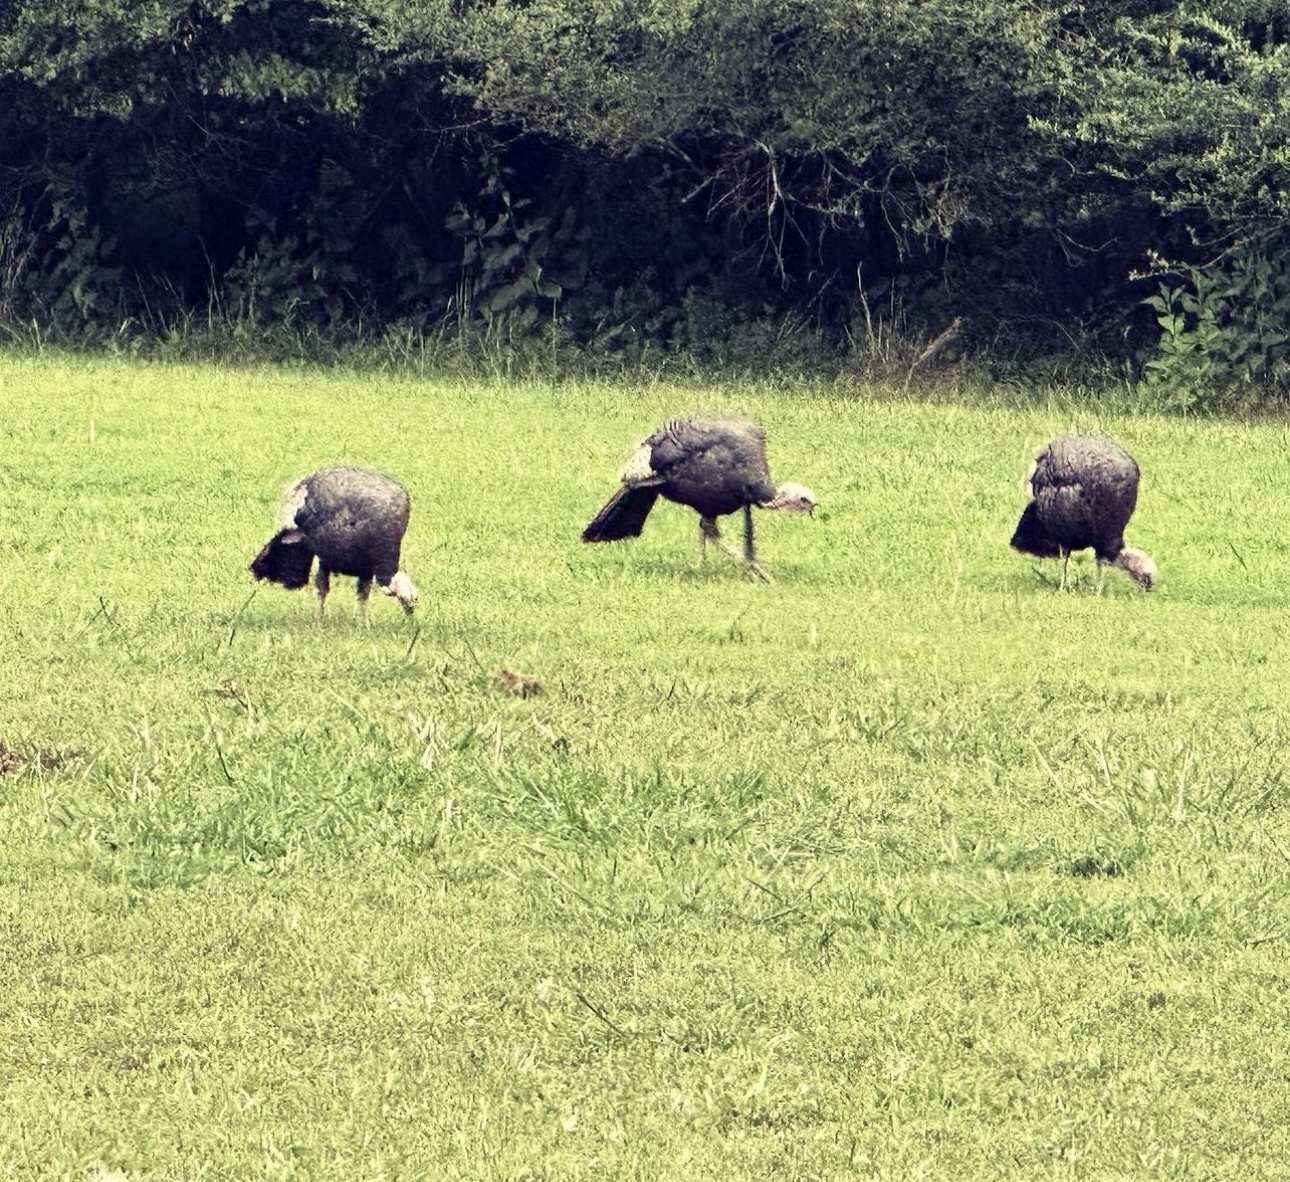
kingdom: Animalia
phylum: Chordata
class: Aves
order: Galliformes
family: Phasianidae
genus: Meleagris
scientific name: Meleagris gallopavo
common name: Wild turkey
